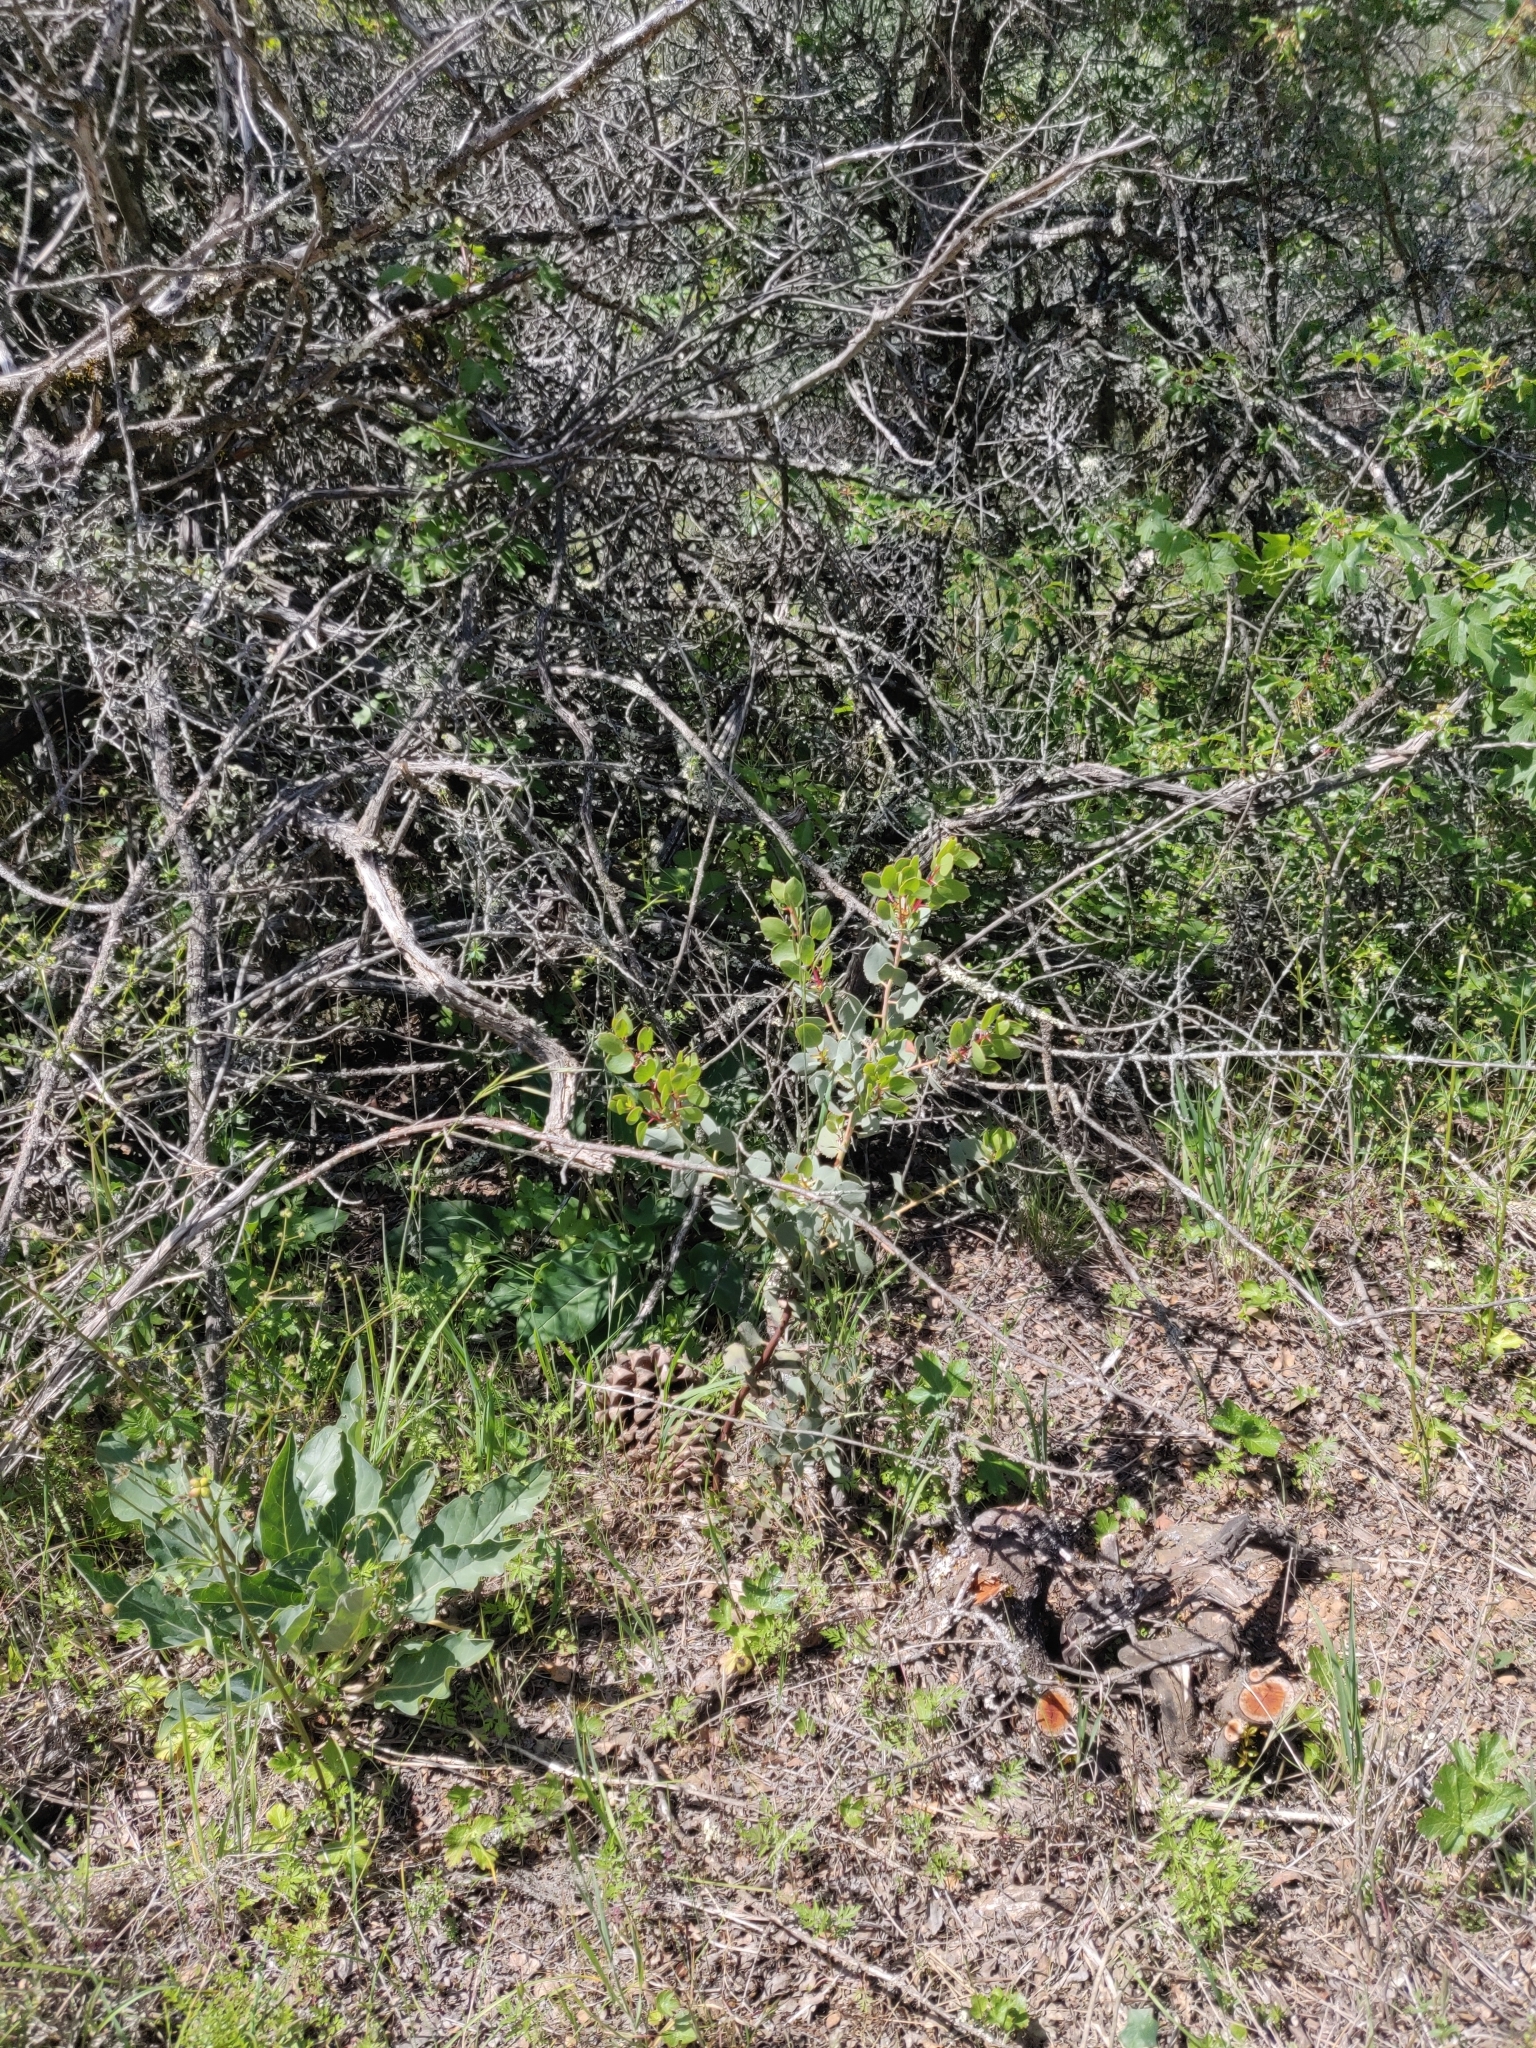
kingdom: Plantae
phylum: Tracheophyta
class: Magnoliopsida
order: Ericales
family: Ericaceae
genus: Arctostaphylos
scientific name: Arctostaphylos glauca
